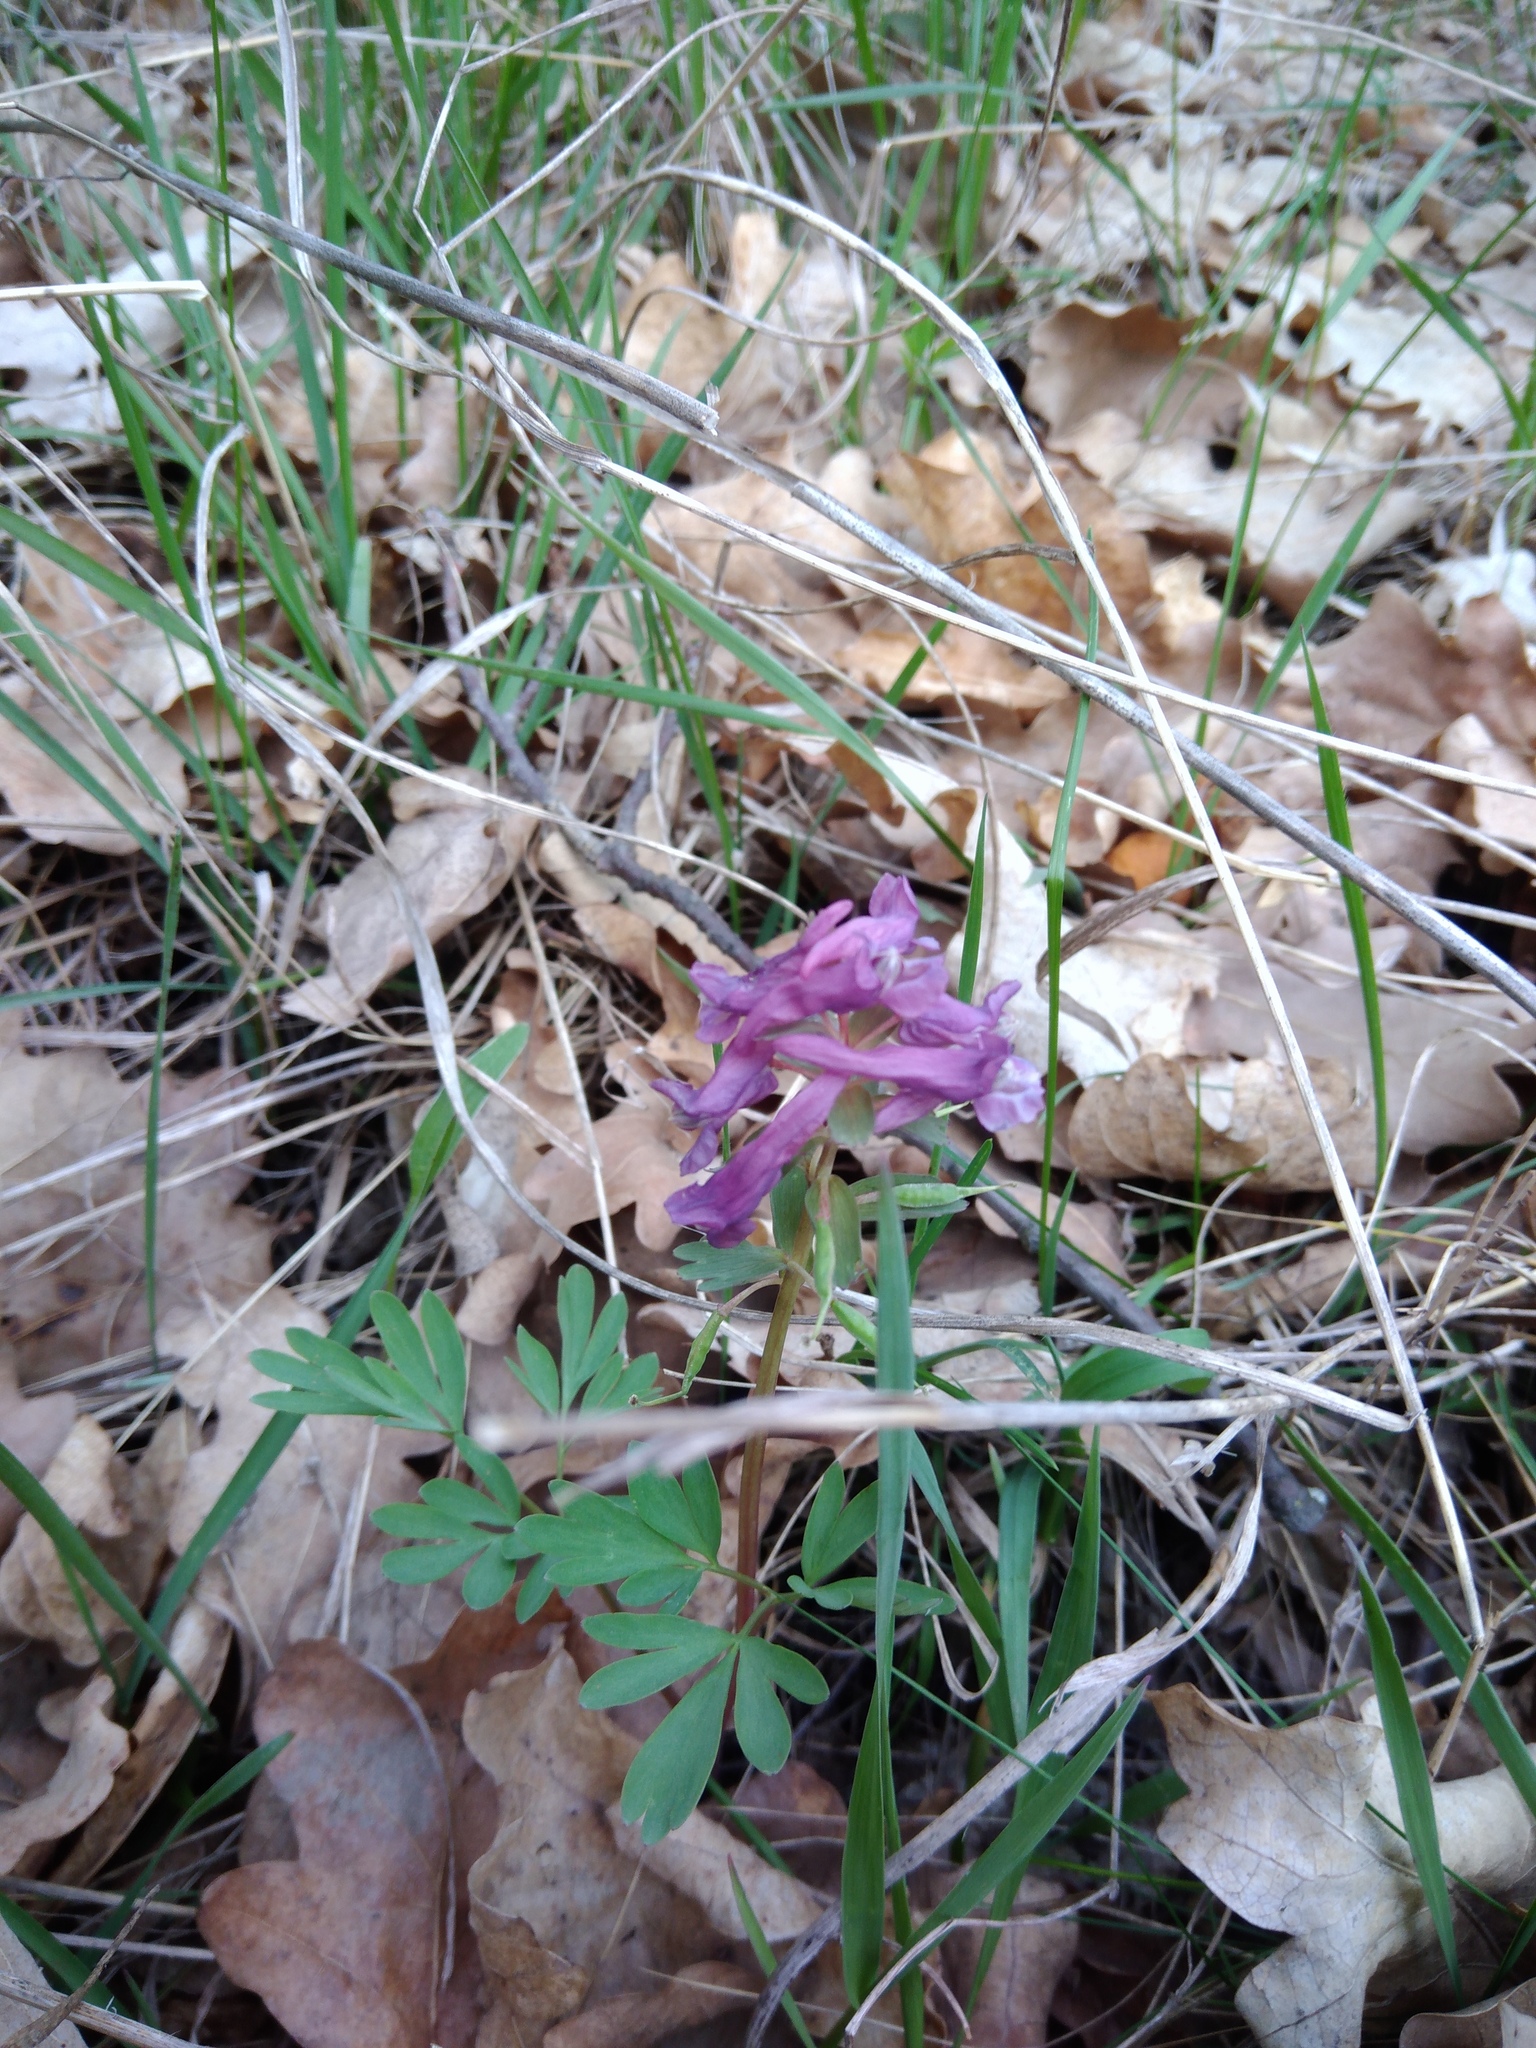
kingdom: Plantae
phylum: Tracheophyta
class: Magnoliopsida
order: Ranunculales
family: Papaveraceae
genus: Corydalis
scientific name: Corydalis solida
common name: Bird-in-a-bush
